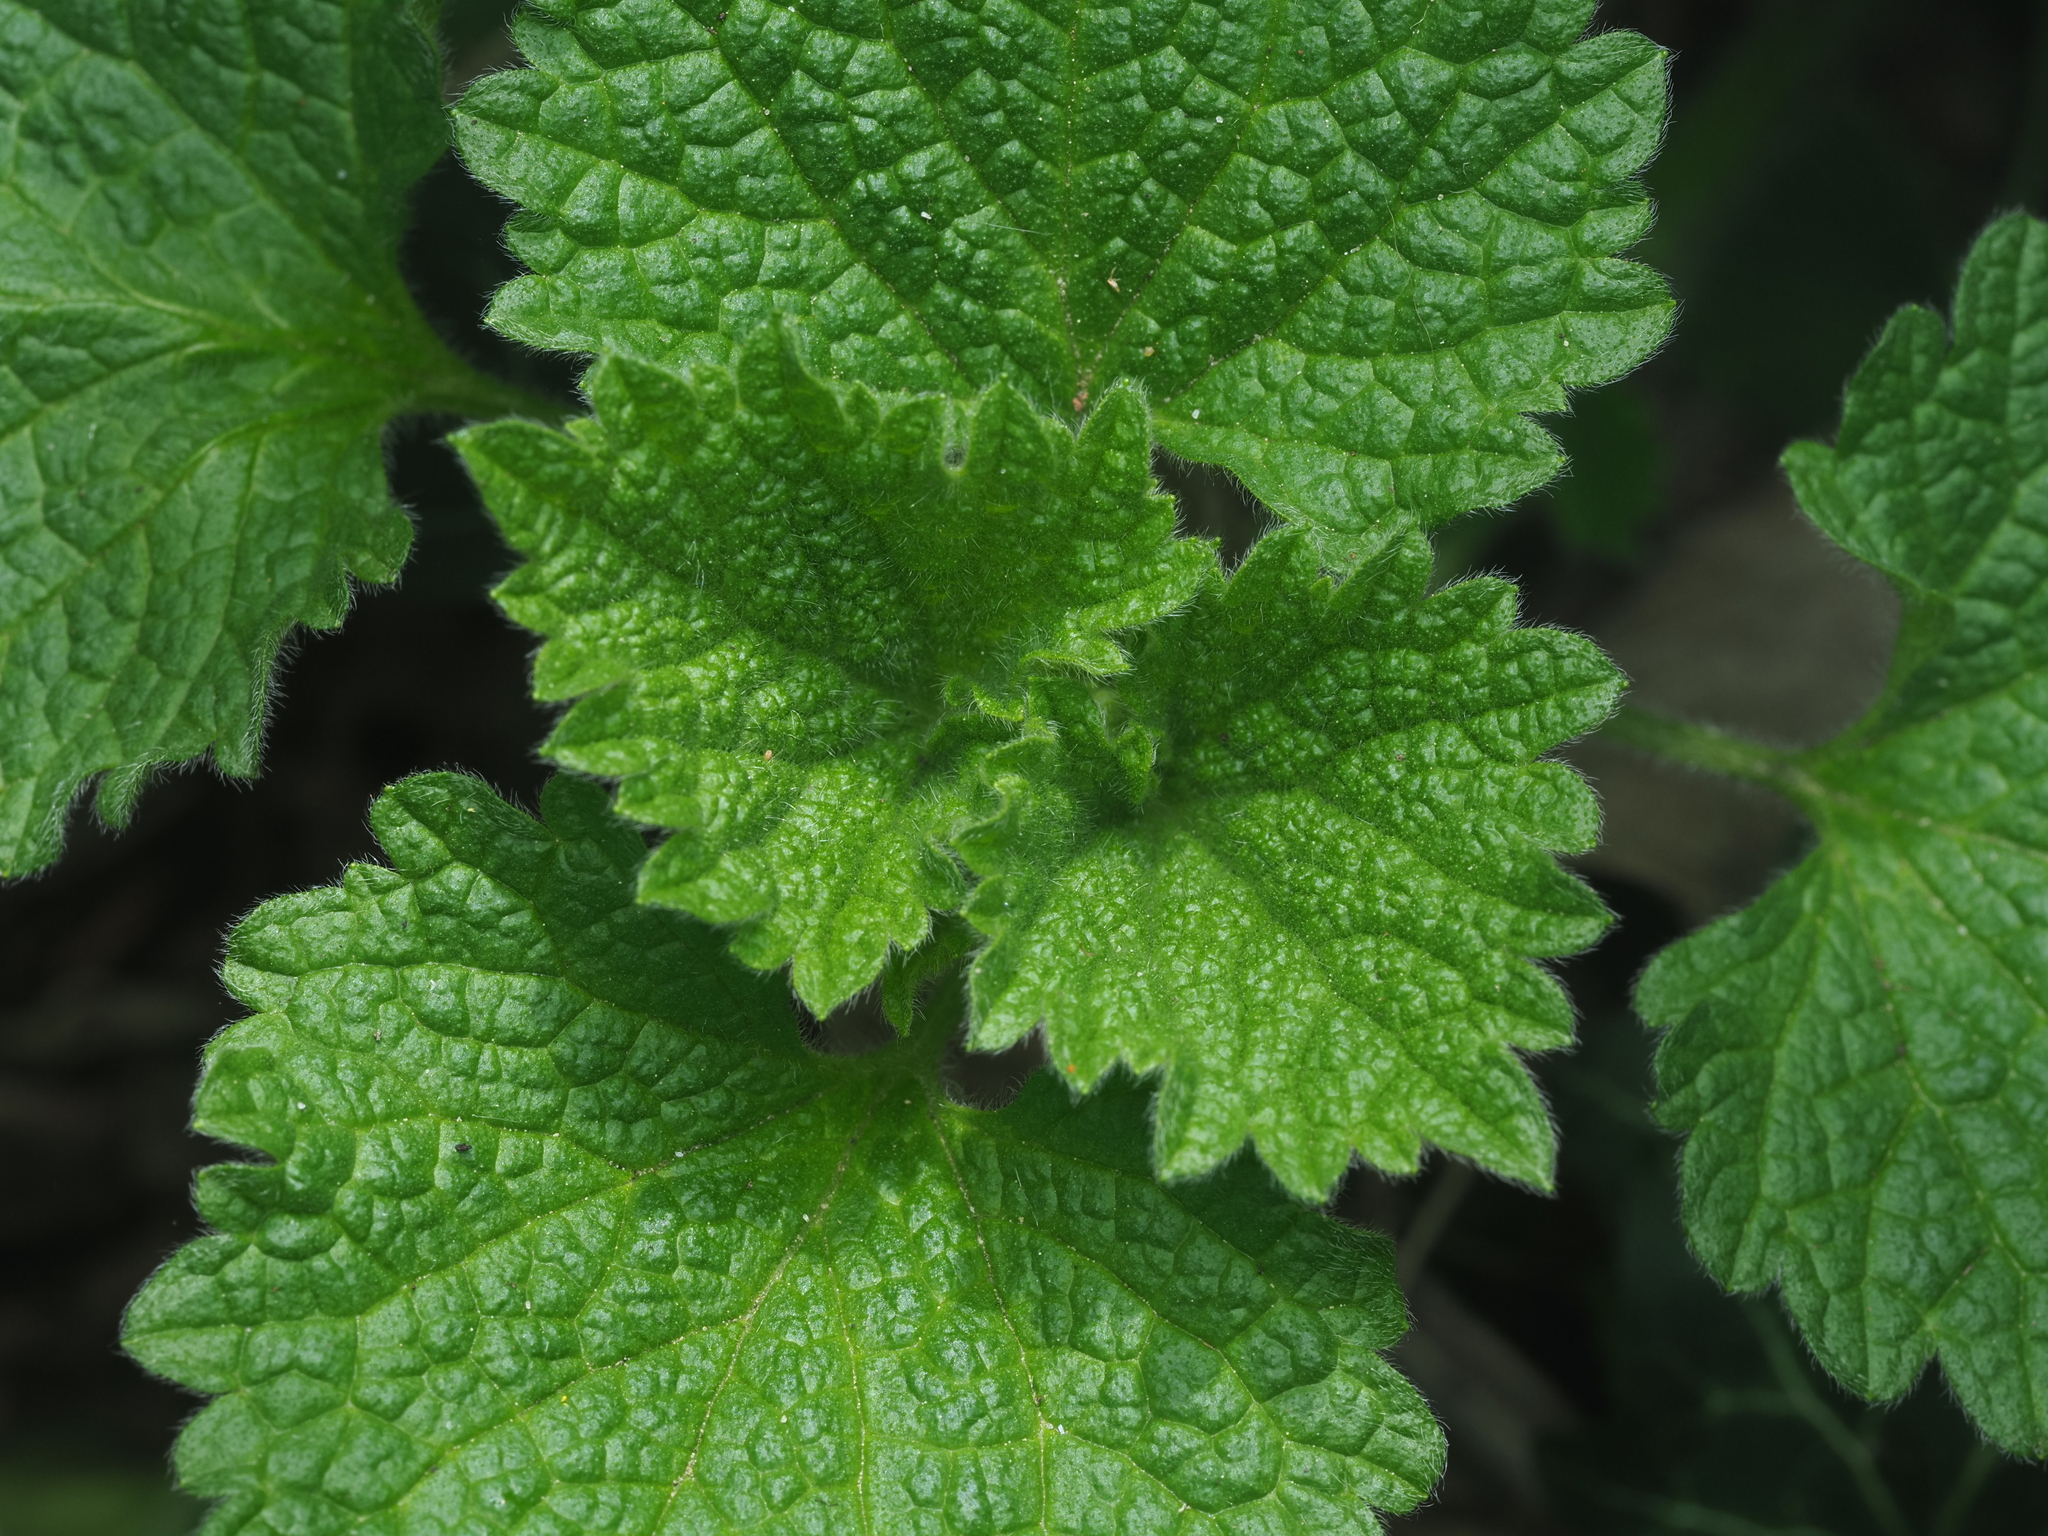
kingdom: Plantae
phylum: Tracheophyta
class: Magnoliopsida
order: Lamiales
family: Lamiaceae
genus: Ballota
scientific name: Ballota nigra
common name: Black horehound
